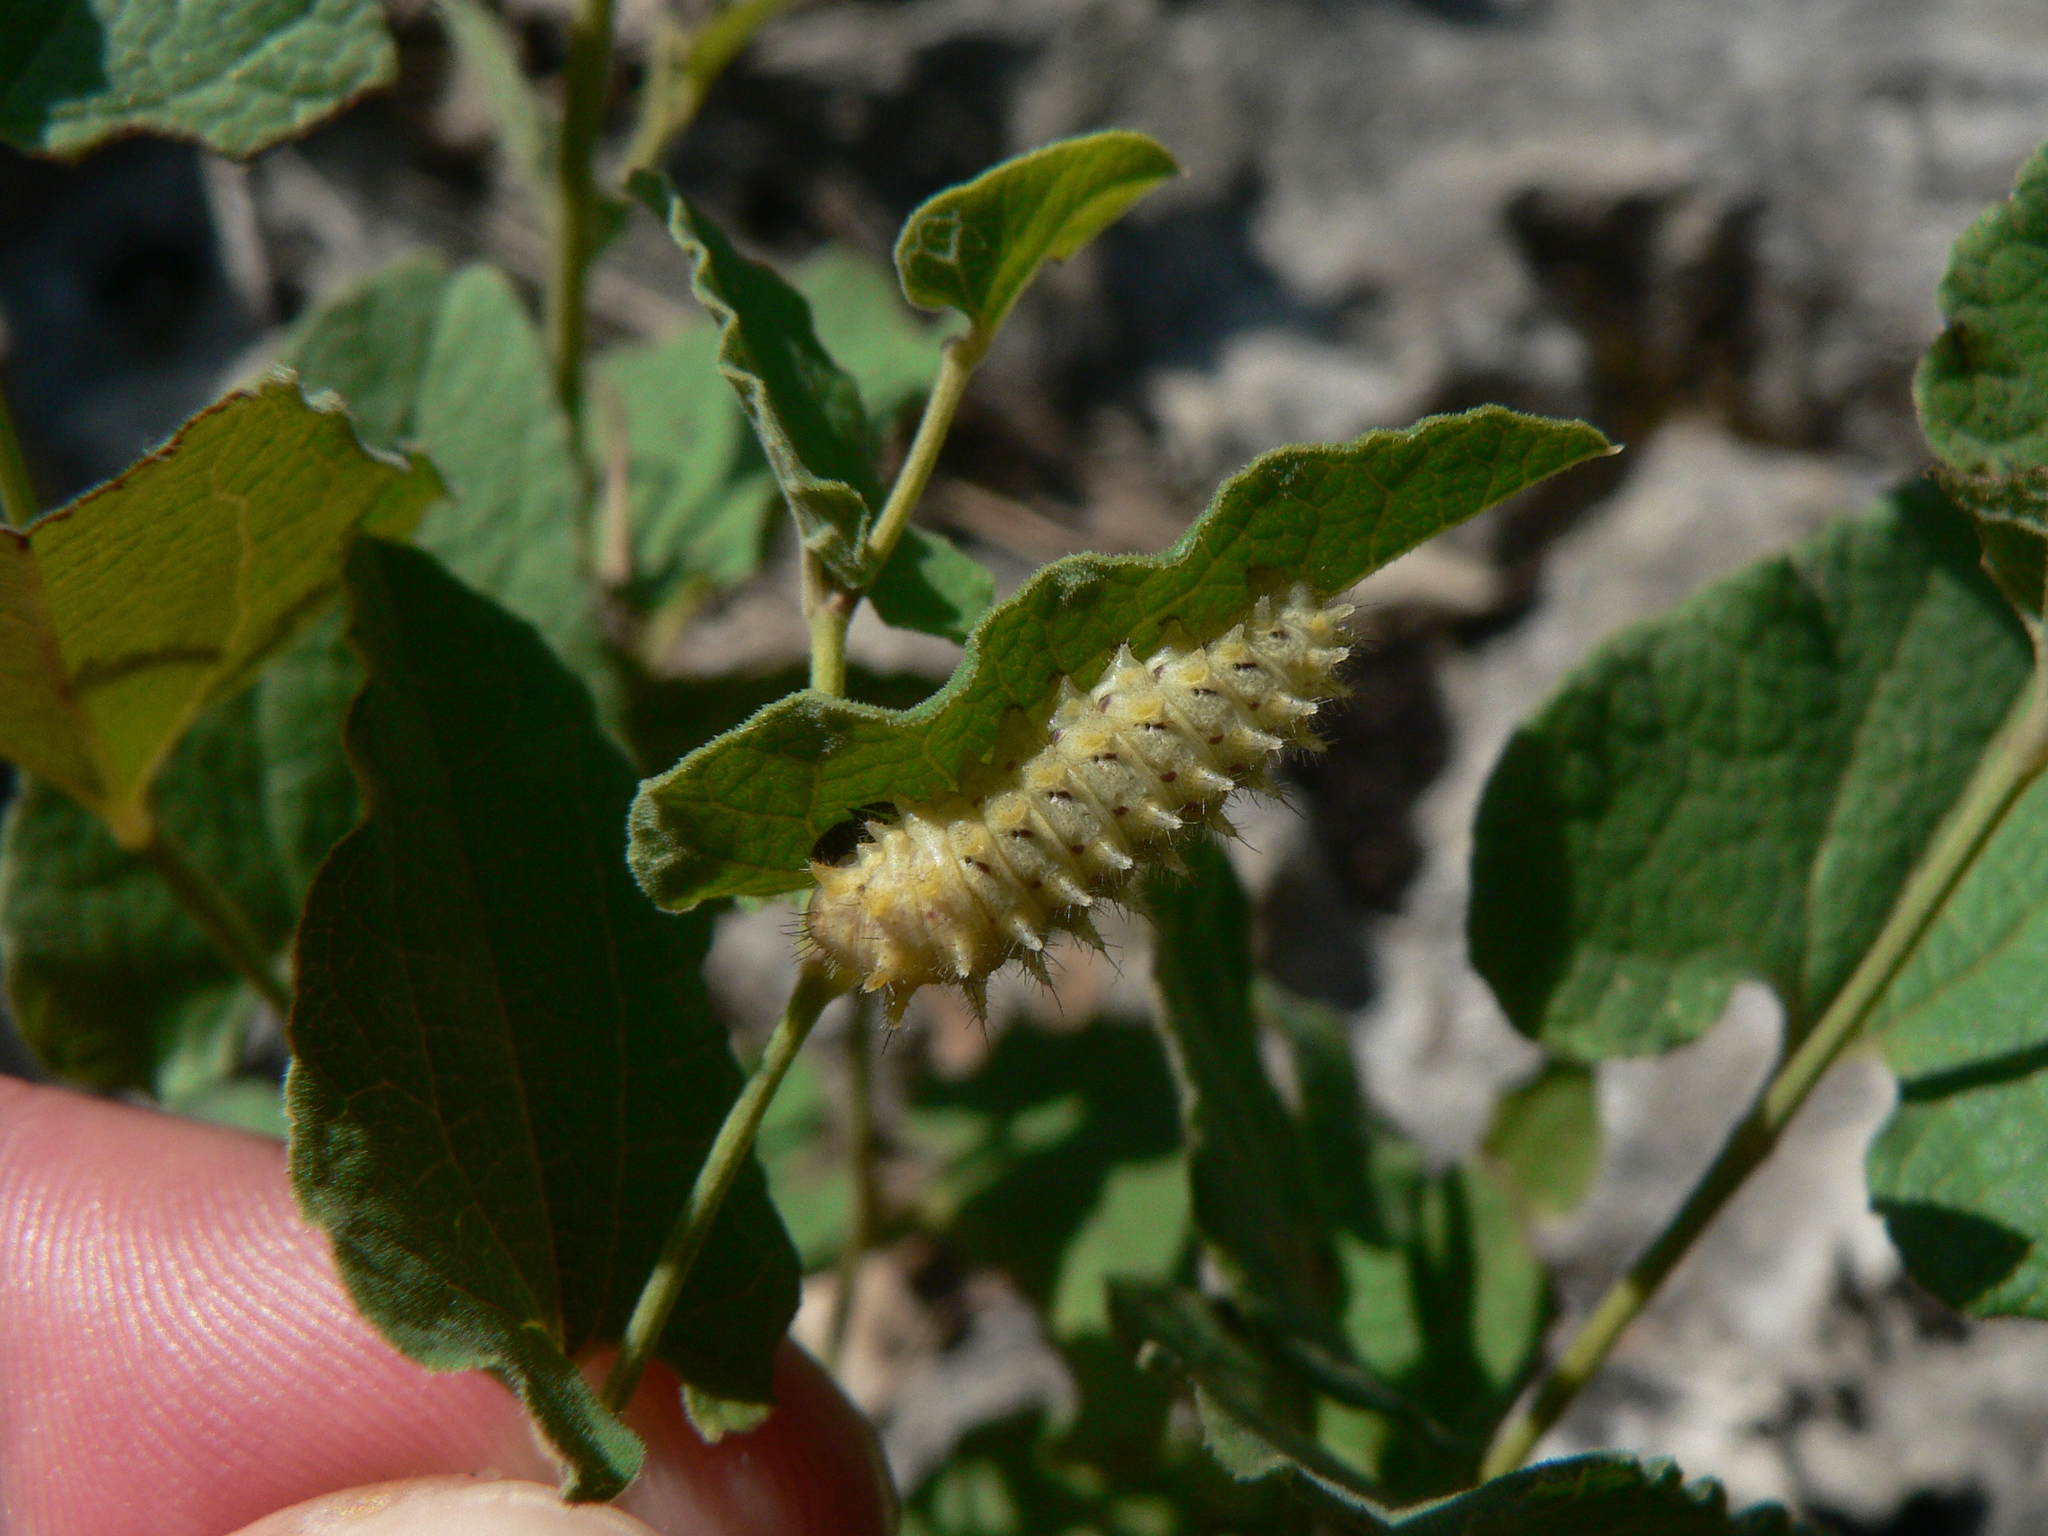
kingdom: Animalia
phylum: Arthropoda
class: Insecta
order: Lepidoptera
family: Papilionidae
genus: Zerynthia
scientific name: Zerynthia rumina
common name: Spanish festoon
